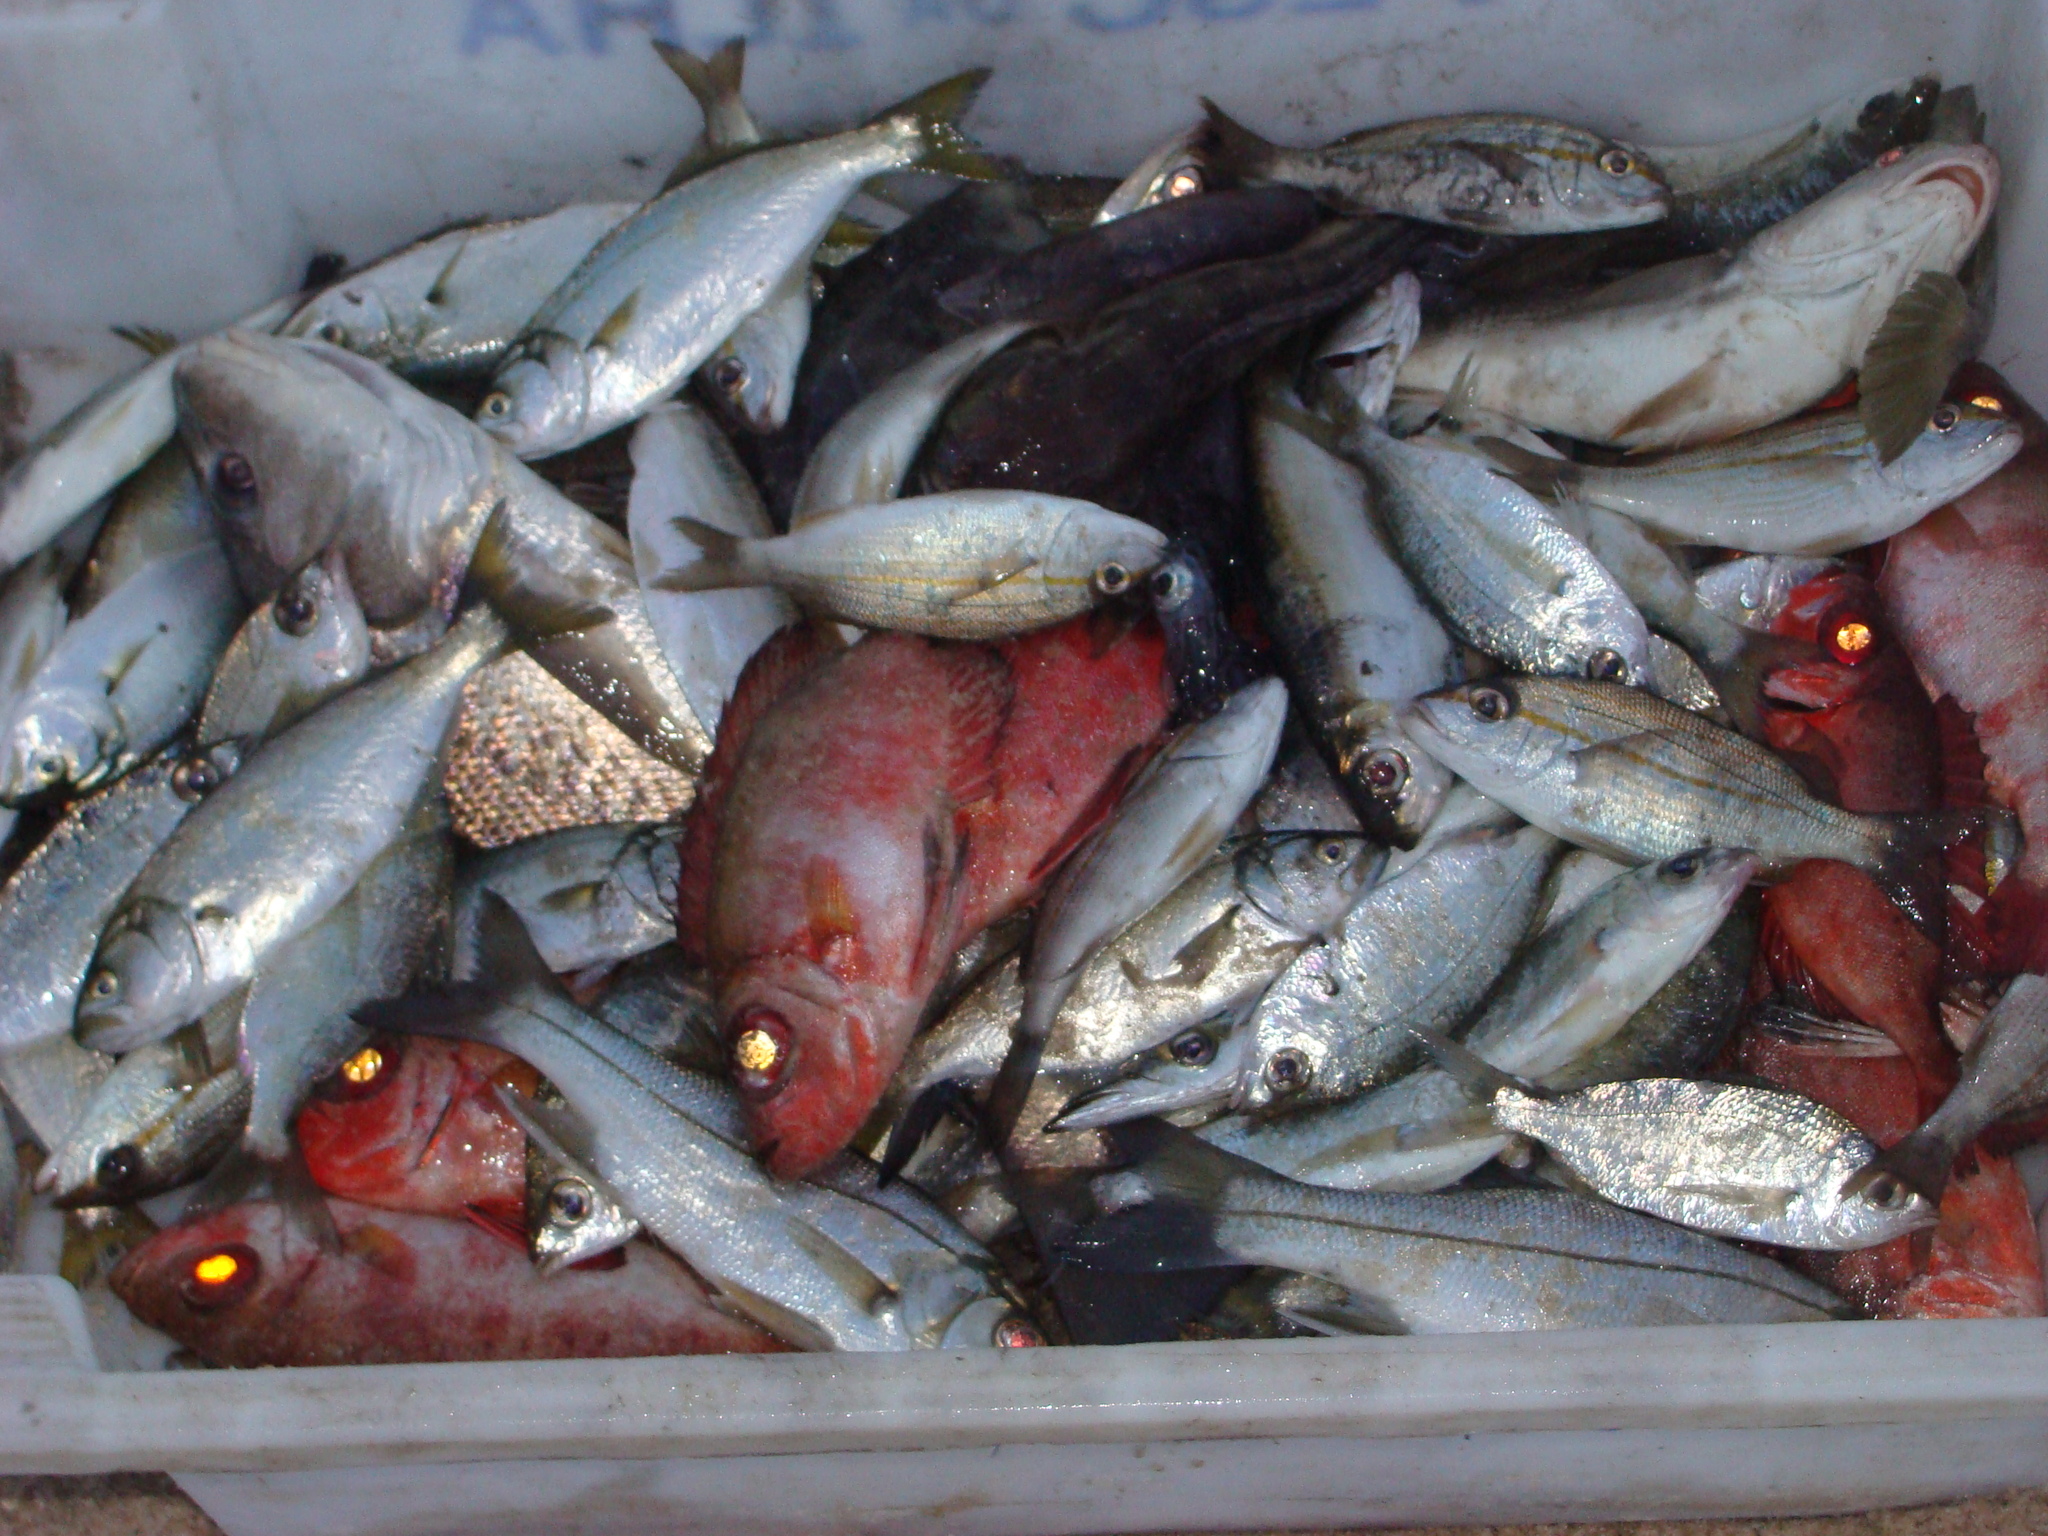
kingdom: Animalia
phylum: Chordata
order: Perciformes
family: Priacanthidae
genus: Priacanthus
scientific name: Priacanthus arenatus
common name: Atlantic bigeye
